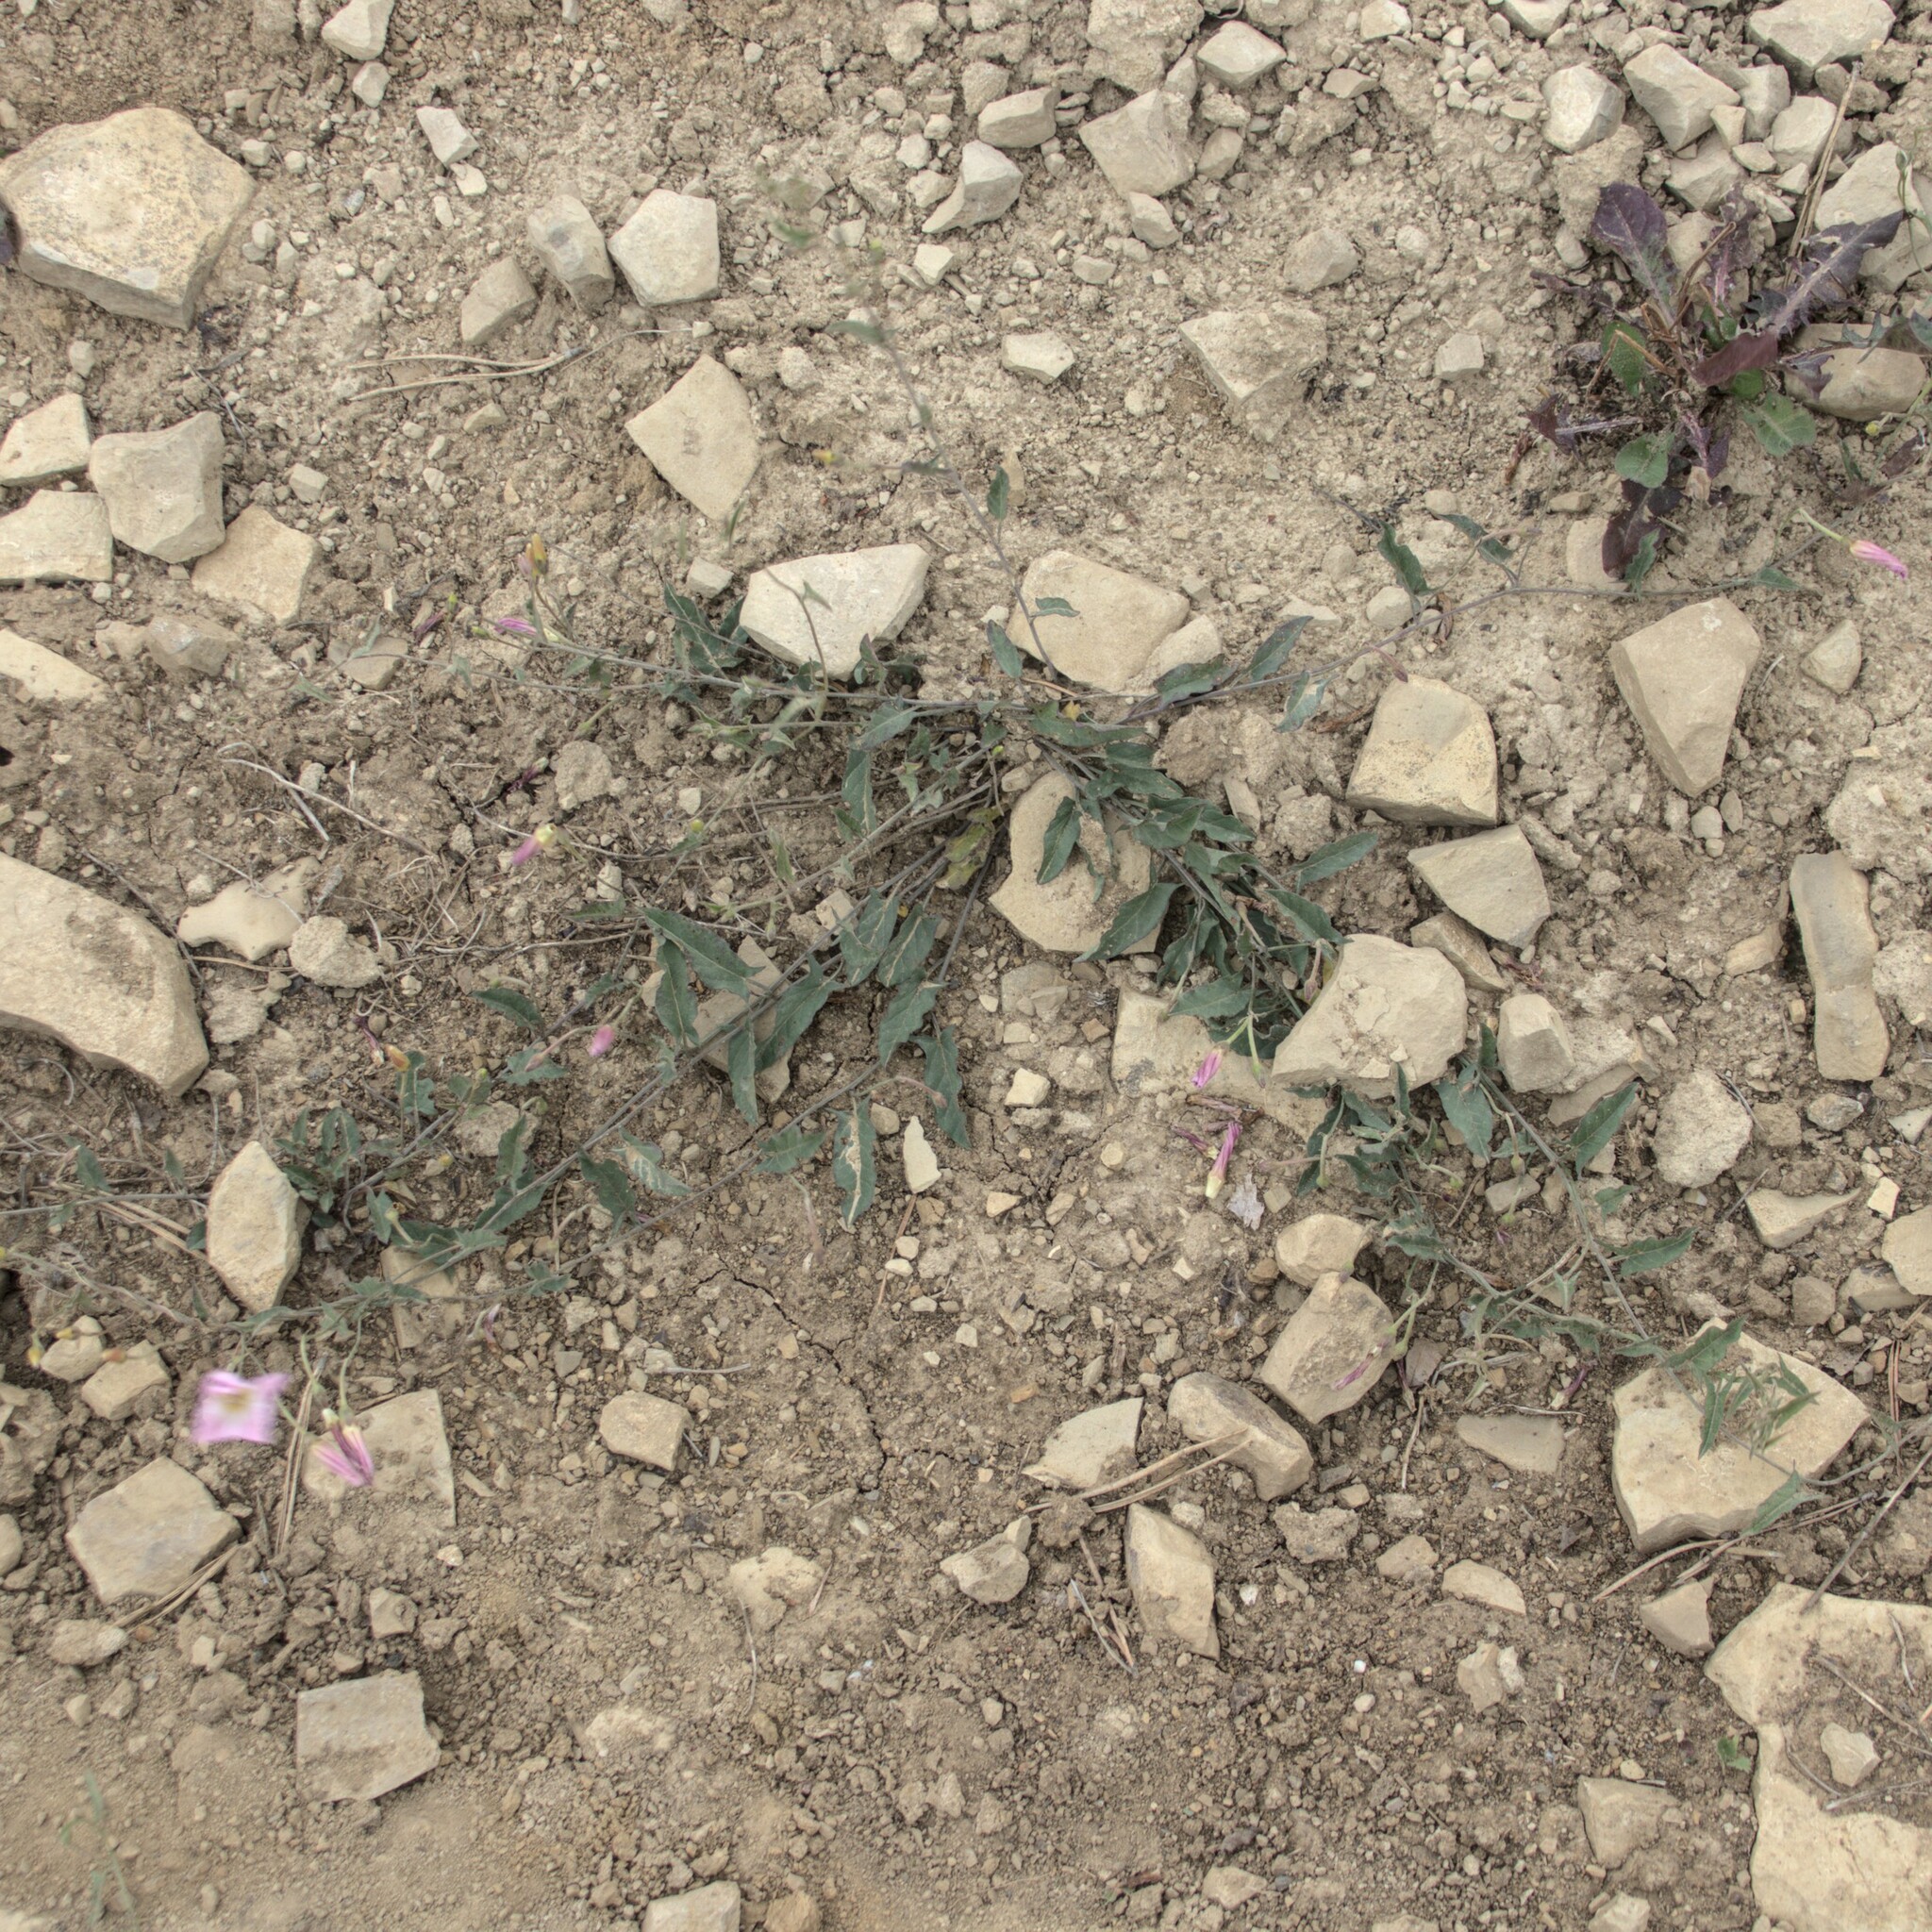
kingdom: Plantae
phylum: Tracheophyta
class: Magnoliopsida
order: Solanales
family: Convolvulaceae
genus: Convolvulus
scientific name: Convolvulus arvensis
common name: Field bindweed
